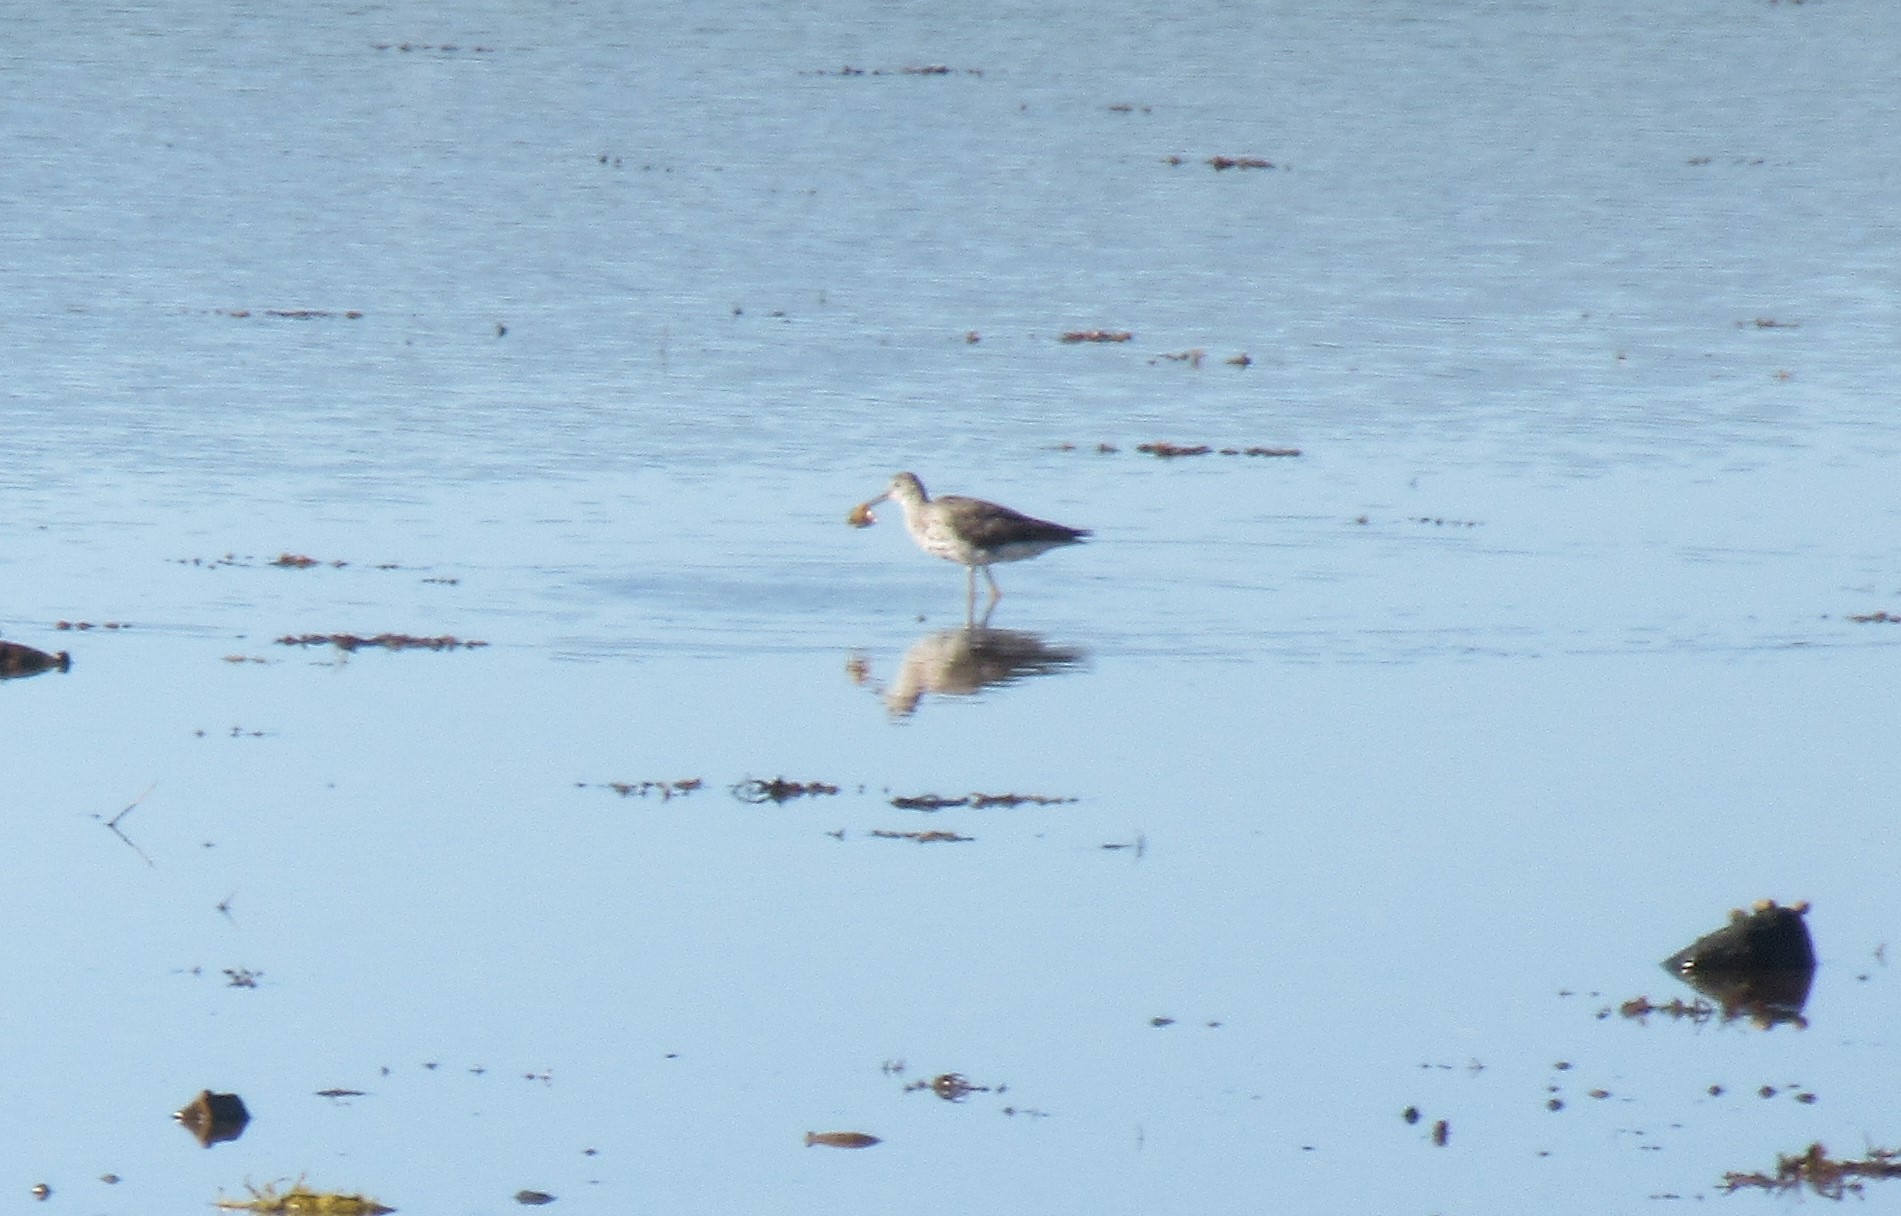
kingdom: Animalia
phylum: Chordata
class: Aves
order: Charadriiformes
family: Scolopacidae
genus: Tringa
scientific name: Tringa melanoleuca
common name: Greater yellowlegs
